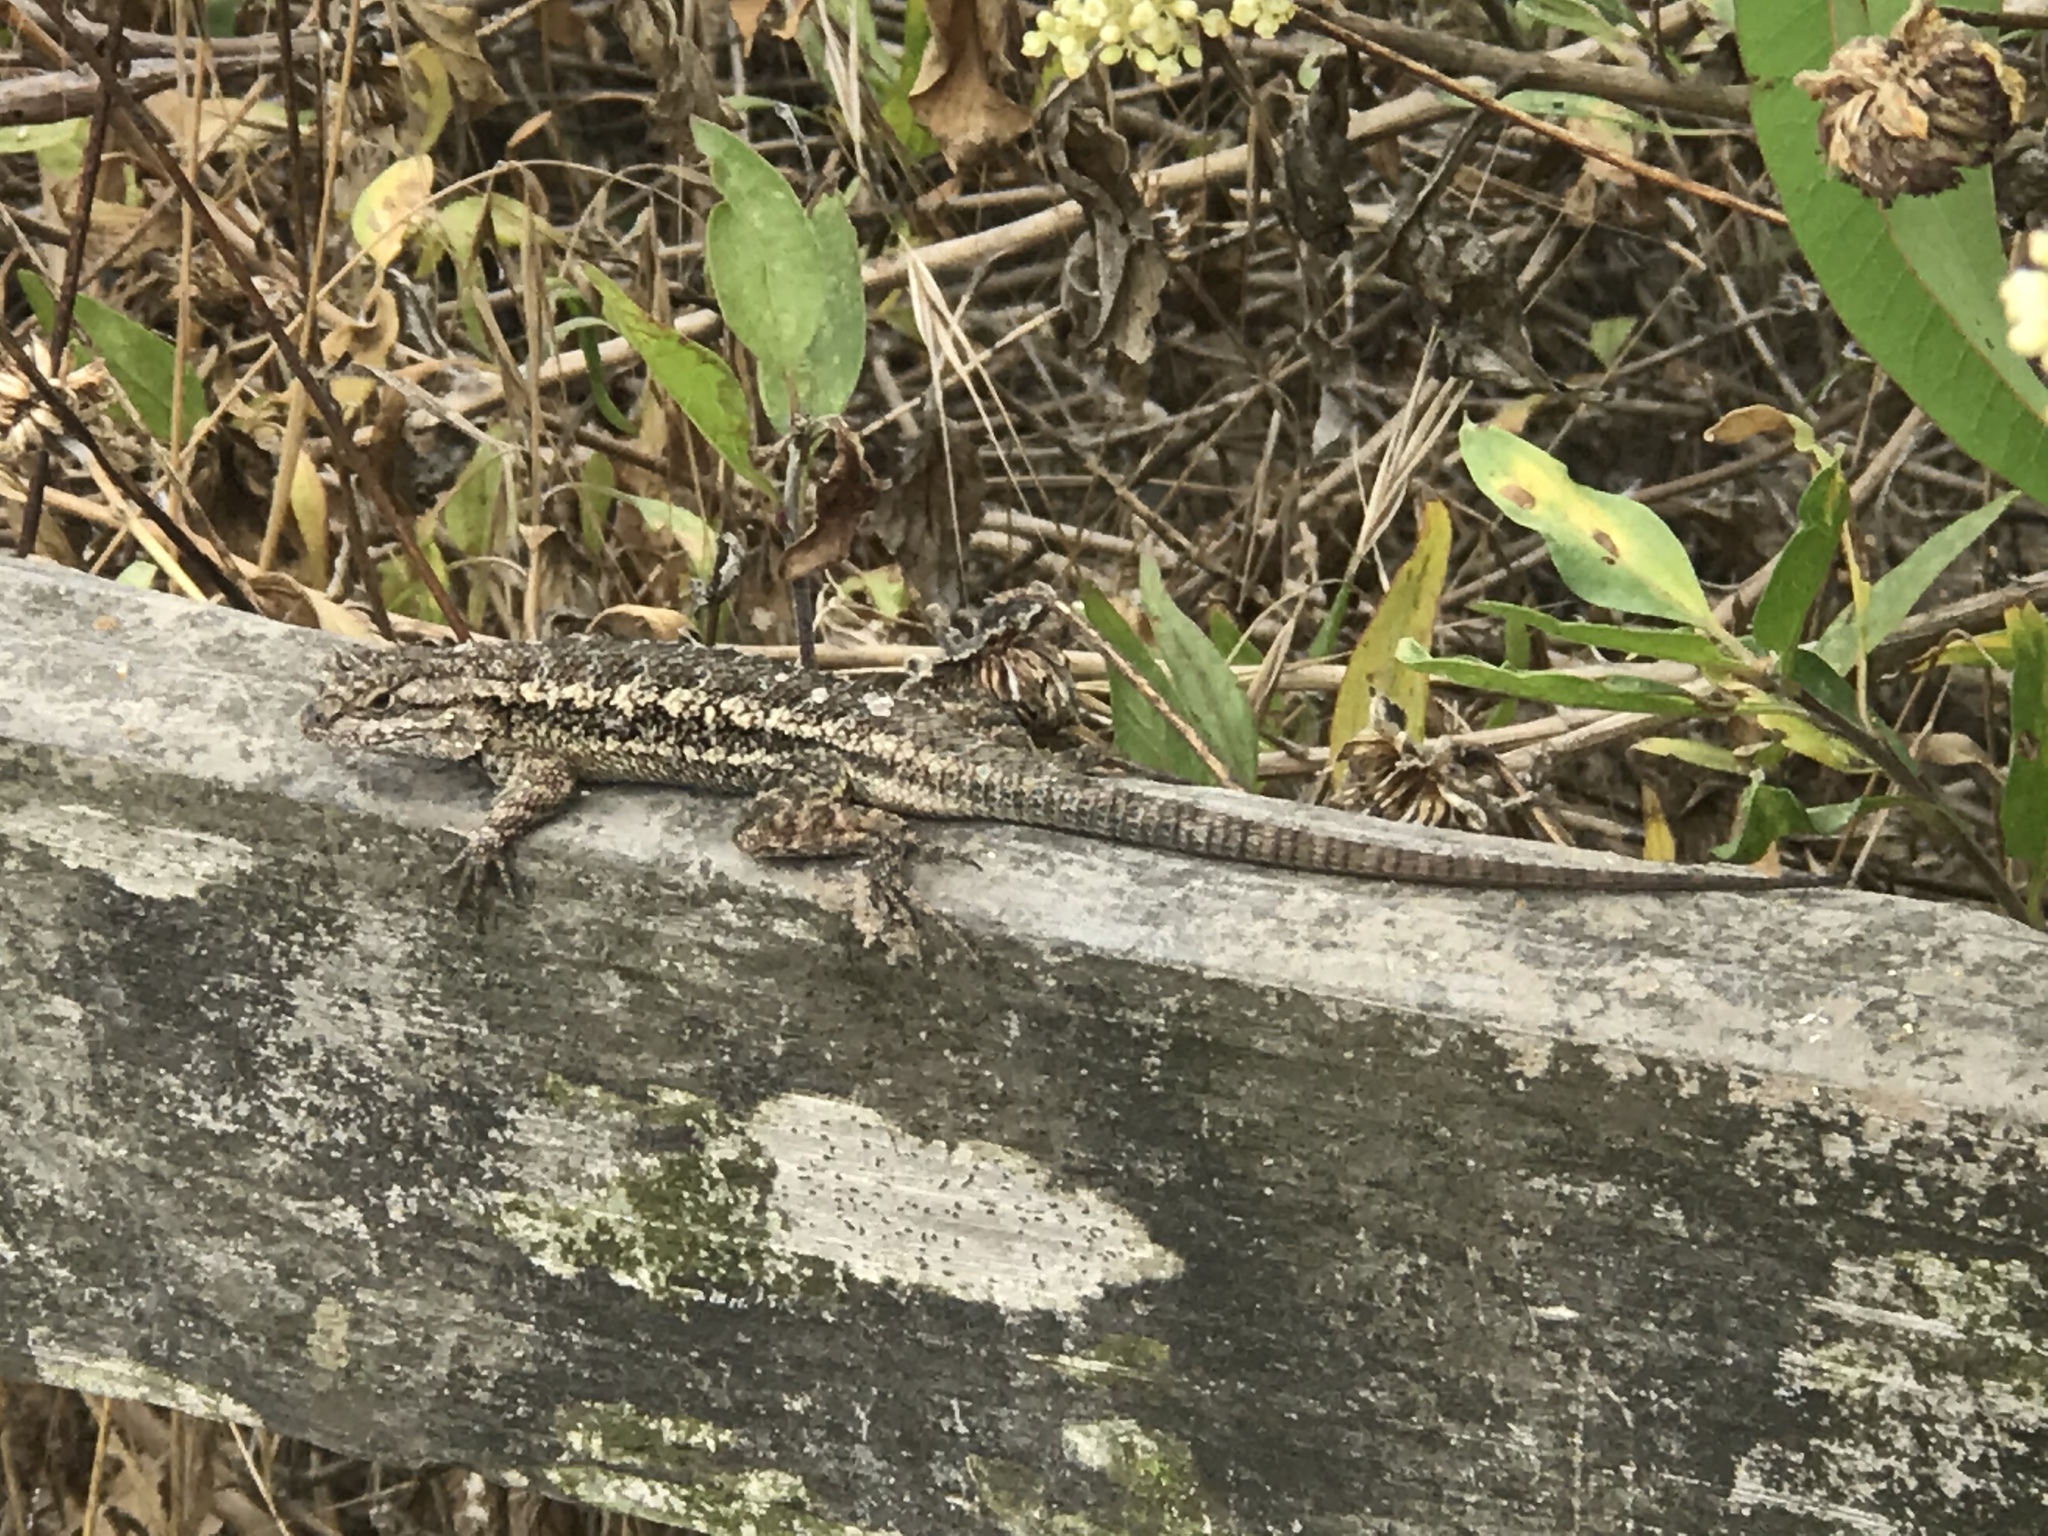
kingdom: Animalia
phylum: Chordata
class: Squamata
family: Phrynosomatidae
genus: Sceloporus
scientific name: Sceloporus occidentalis
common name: Western fence lizard
